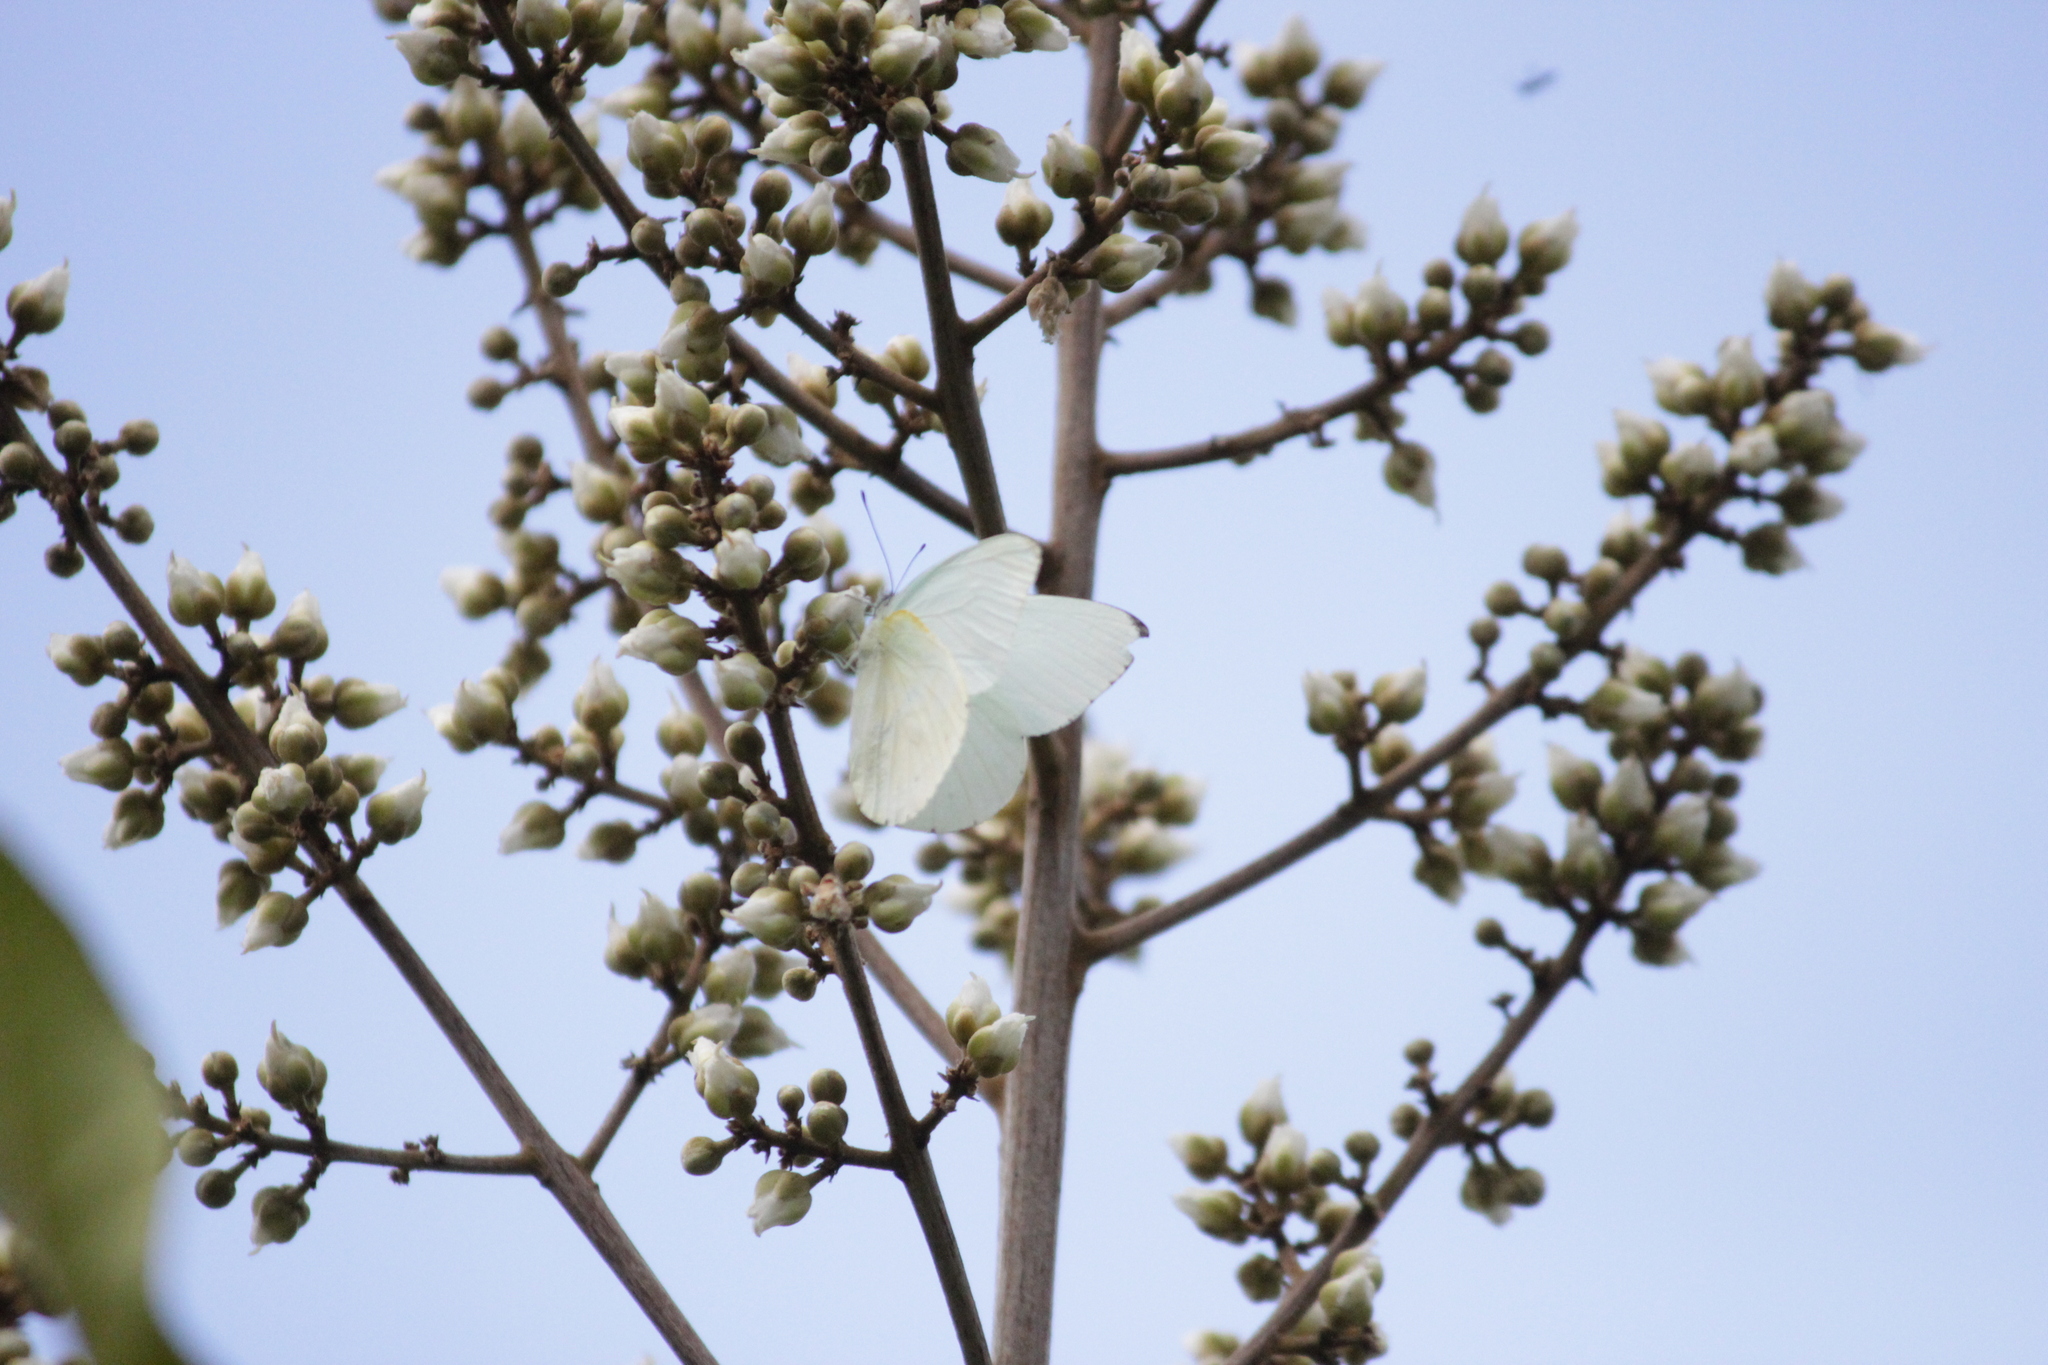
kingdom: Animalia
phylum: Arthropoda
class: Insecta
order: Lepidoptera
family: Pieridae
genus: Glutophrissa
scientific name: Glutophrissa epaphia
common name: African albatross
